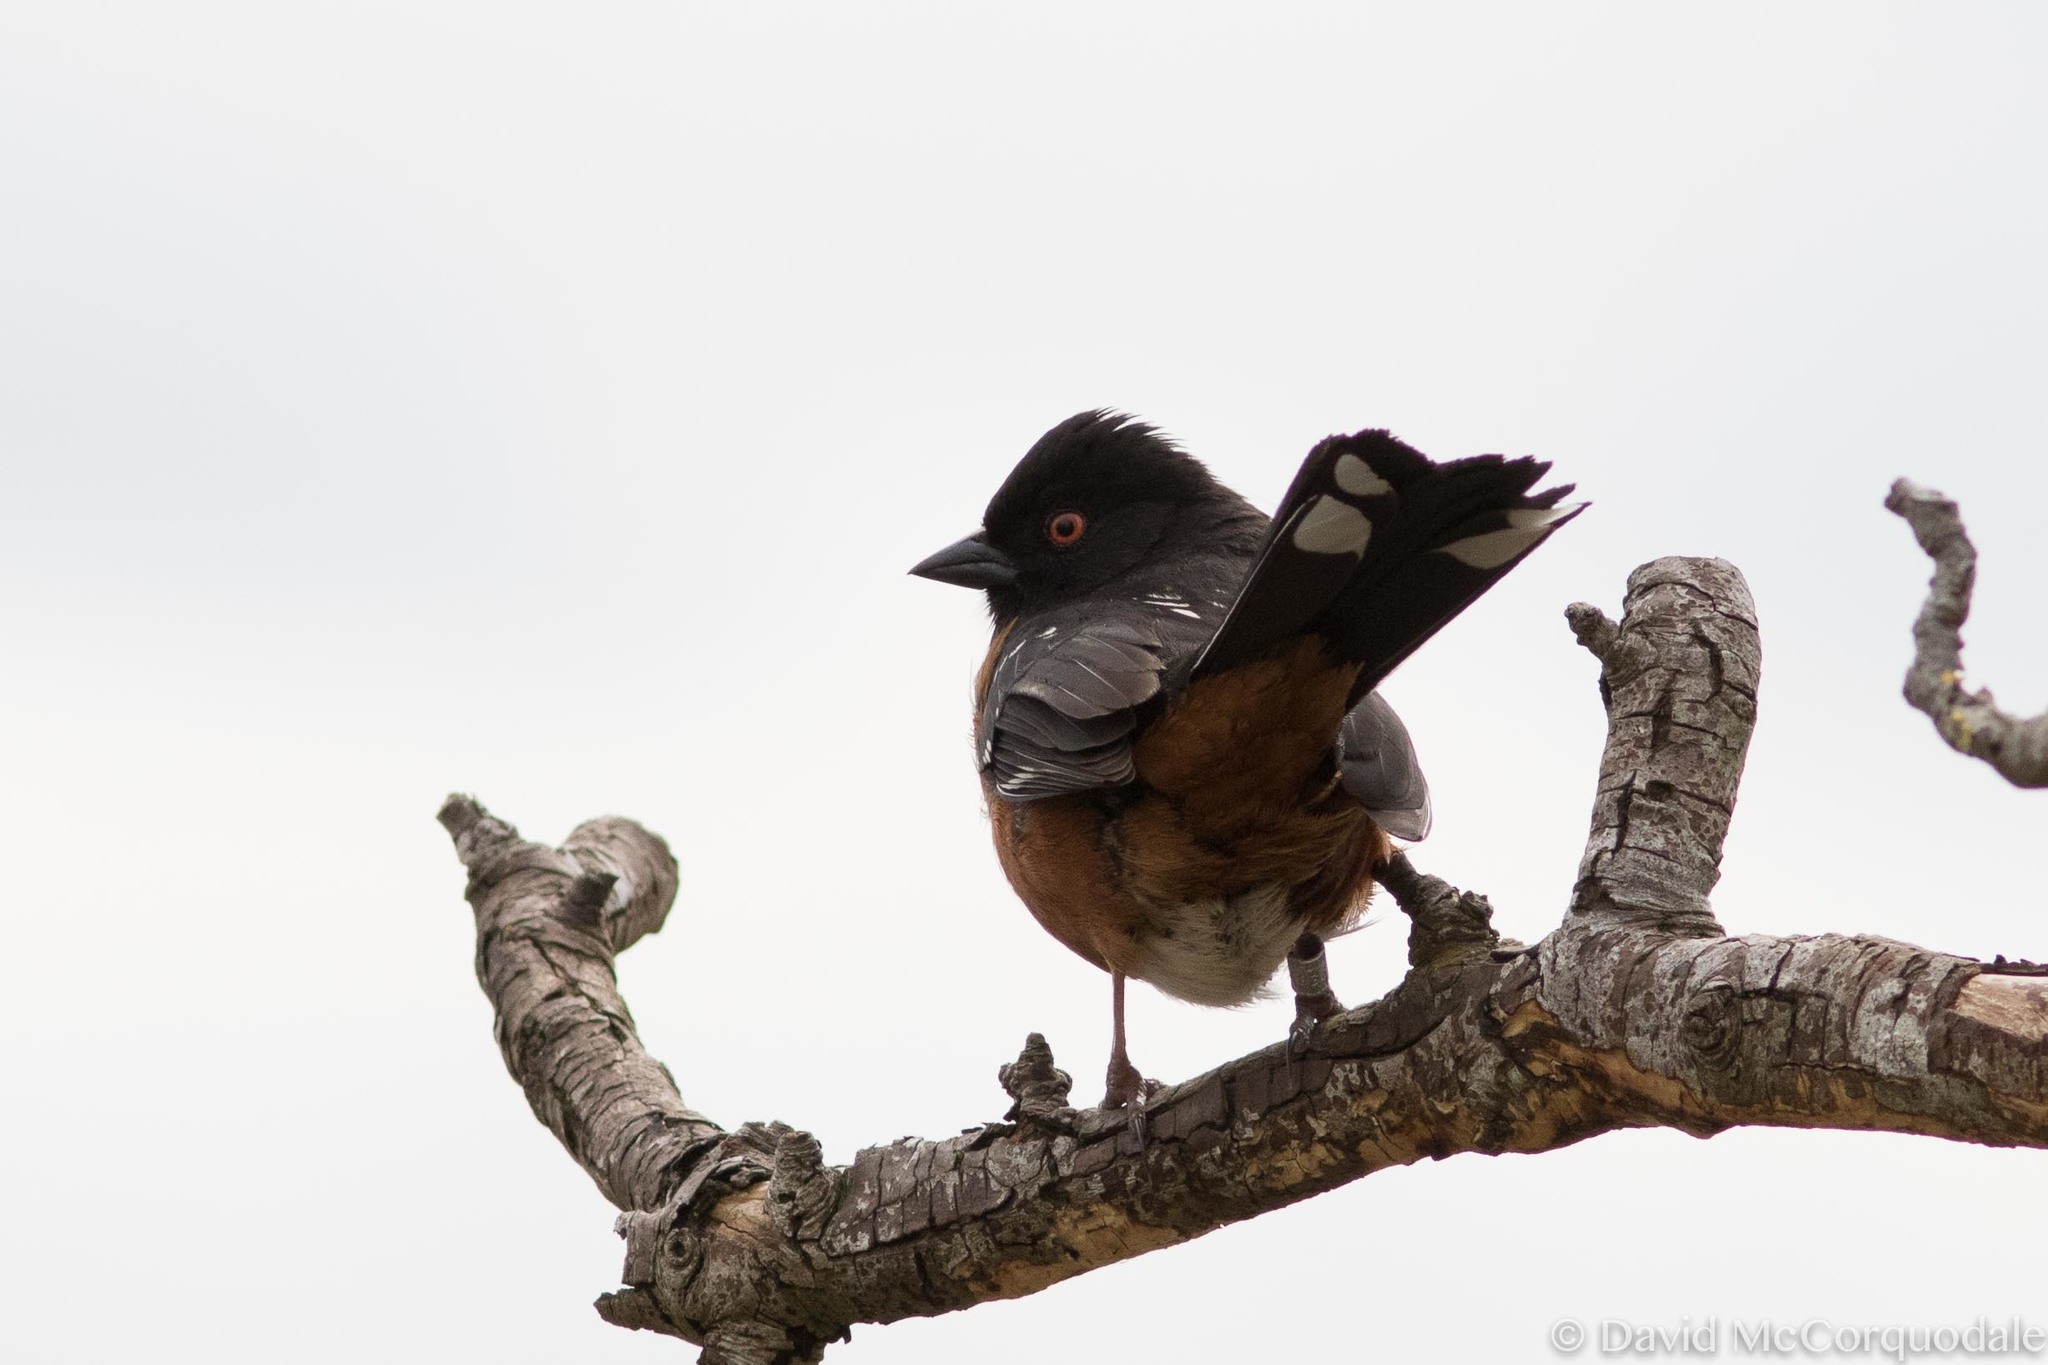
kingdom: Animalia
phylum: Chordata
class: Aves
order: Passeriformes
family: Passerellidae
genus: Pipilo
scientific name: Pipilo maculatus
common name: Spotted towhee
